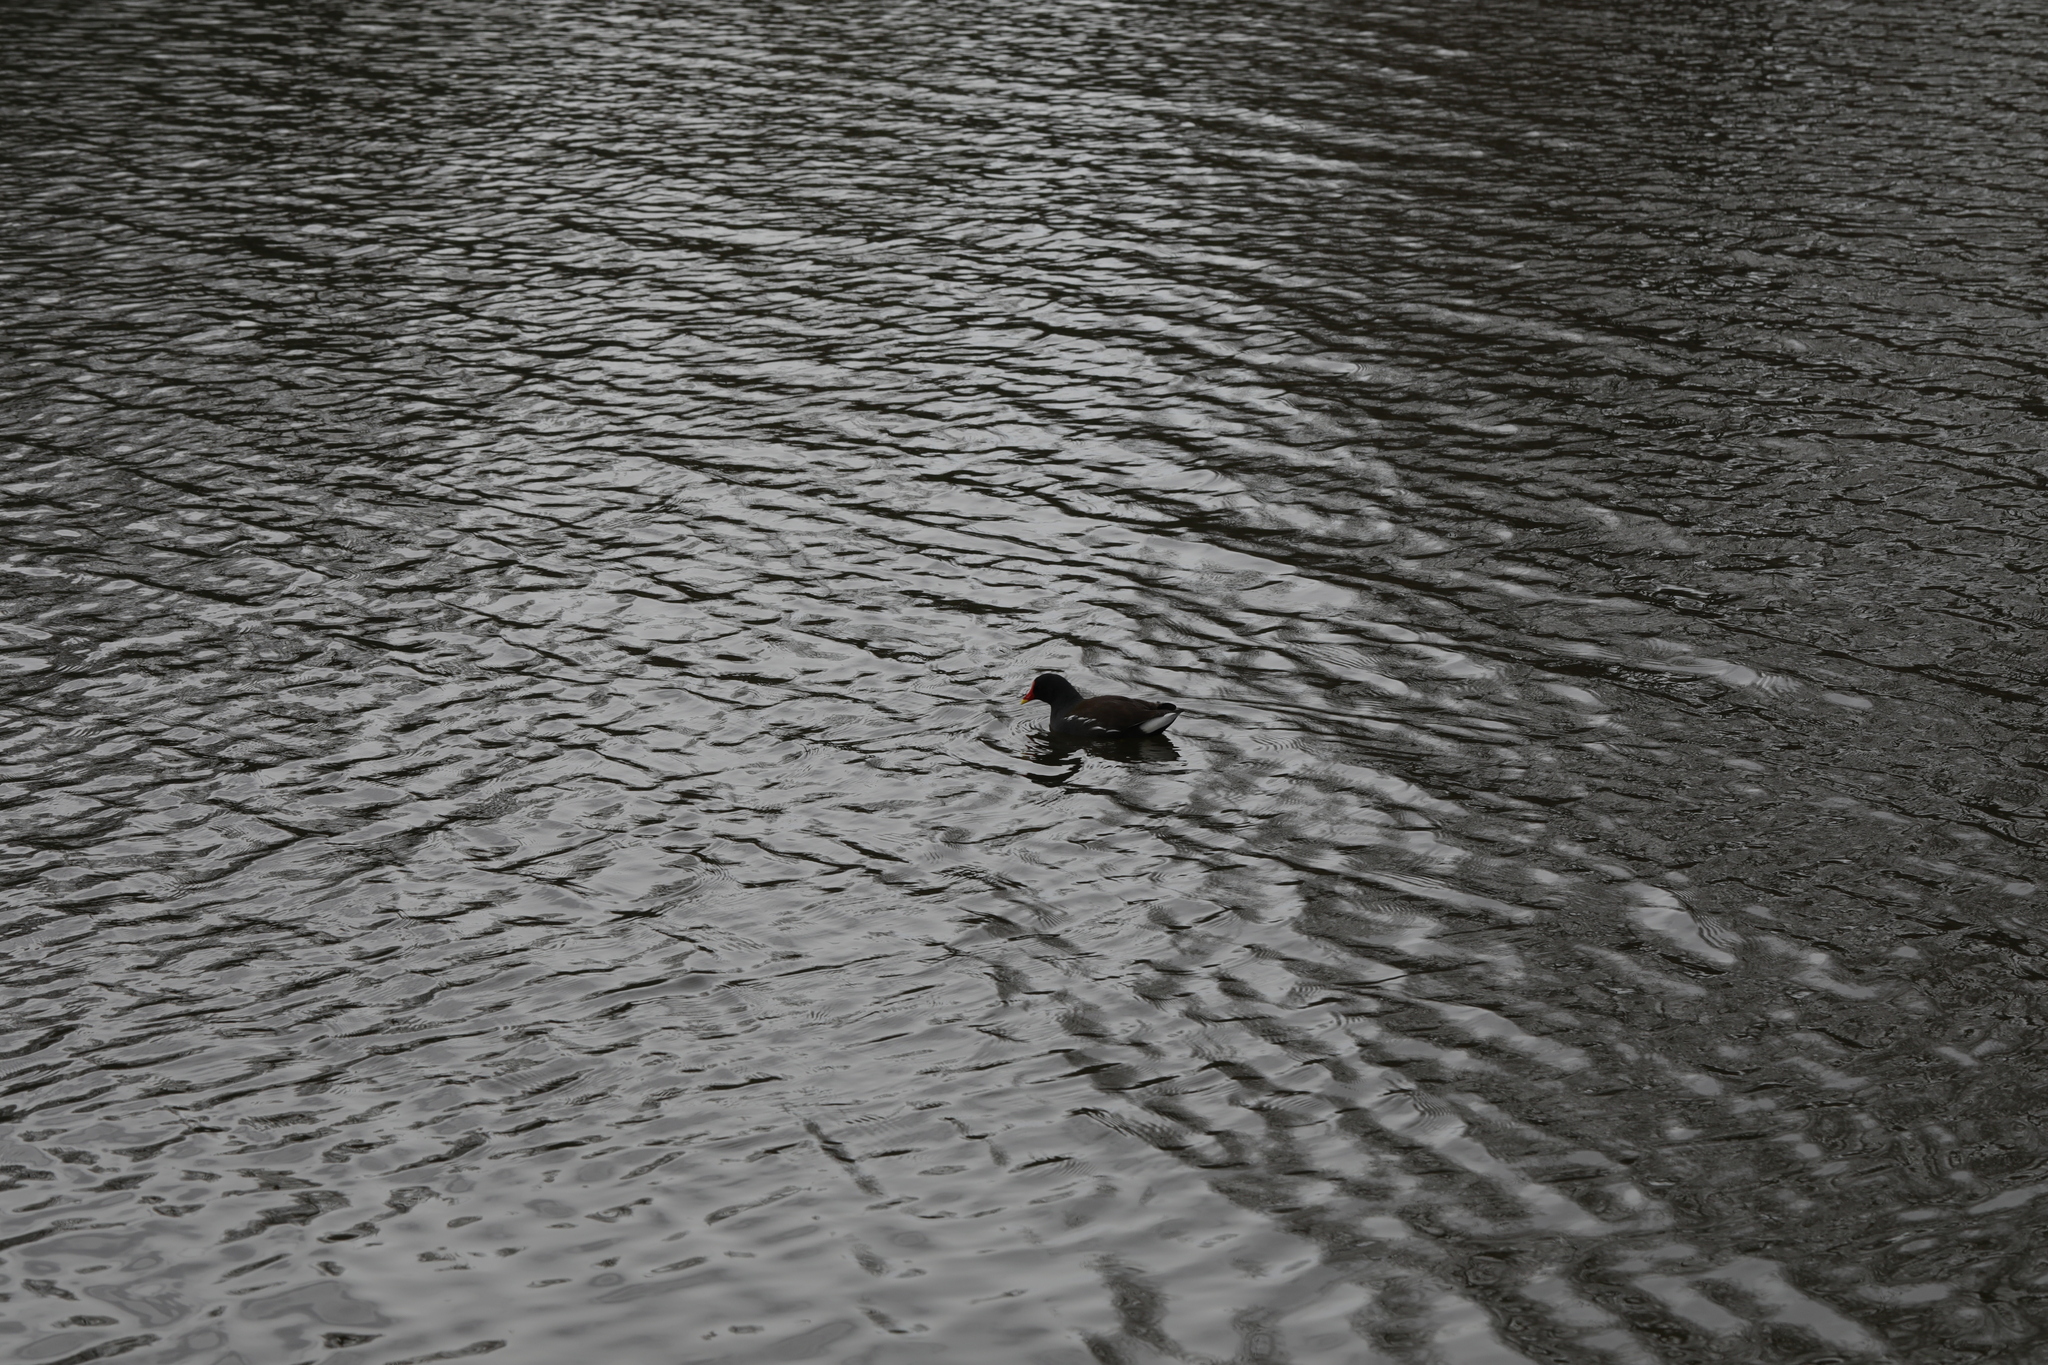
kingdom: Animalia
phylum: Chordata
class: Aves
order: Gruiformes
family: Rallidae
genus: Gallinula
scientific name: Gallinula chloropus
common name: Common moorhen
